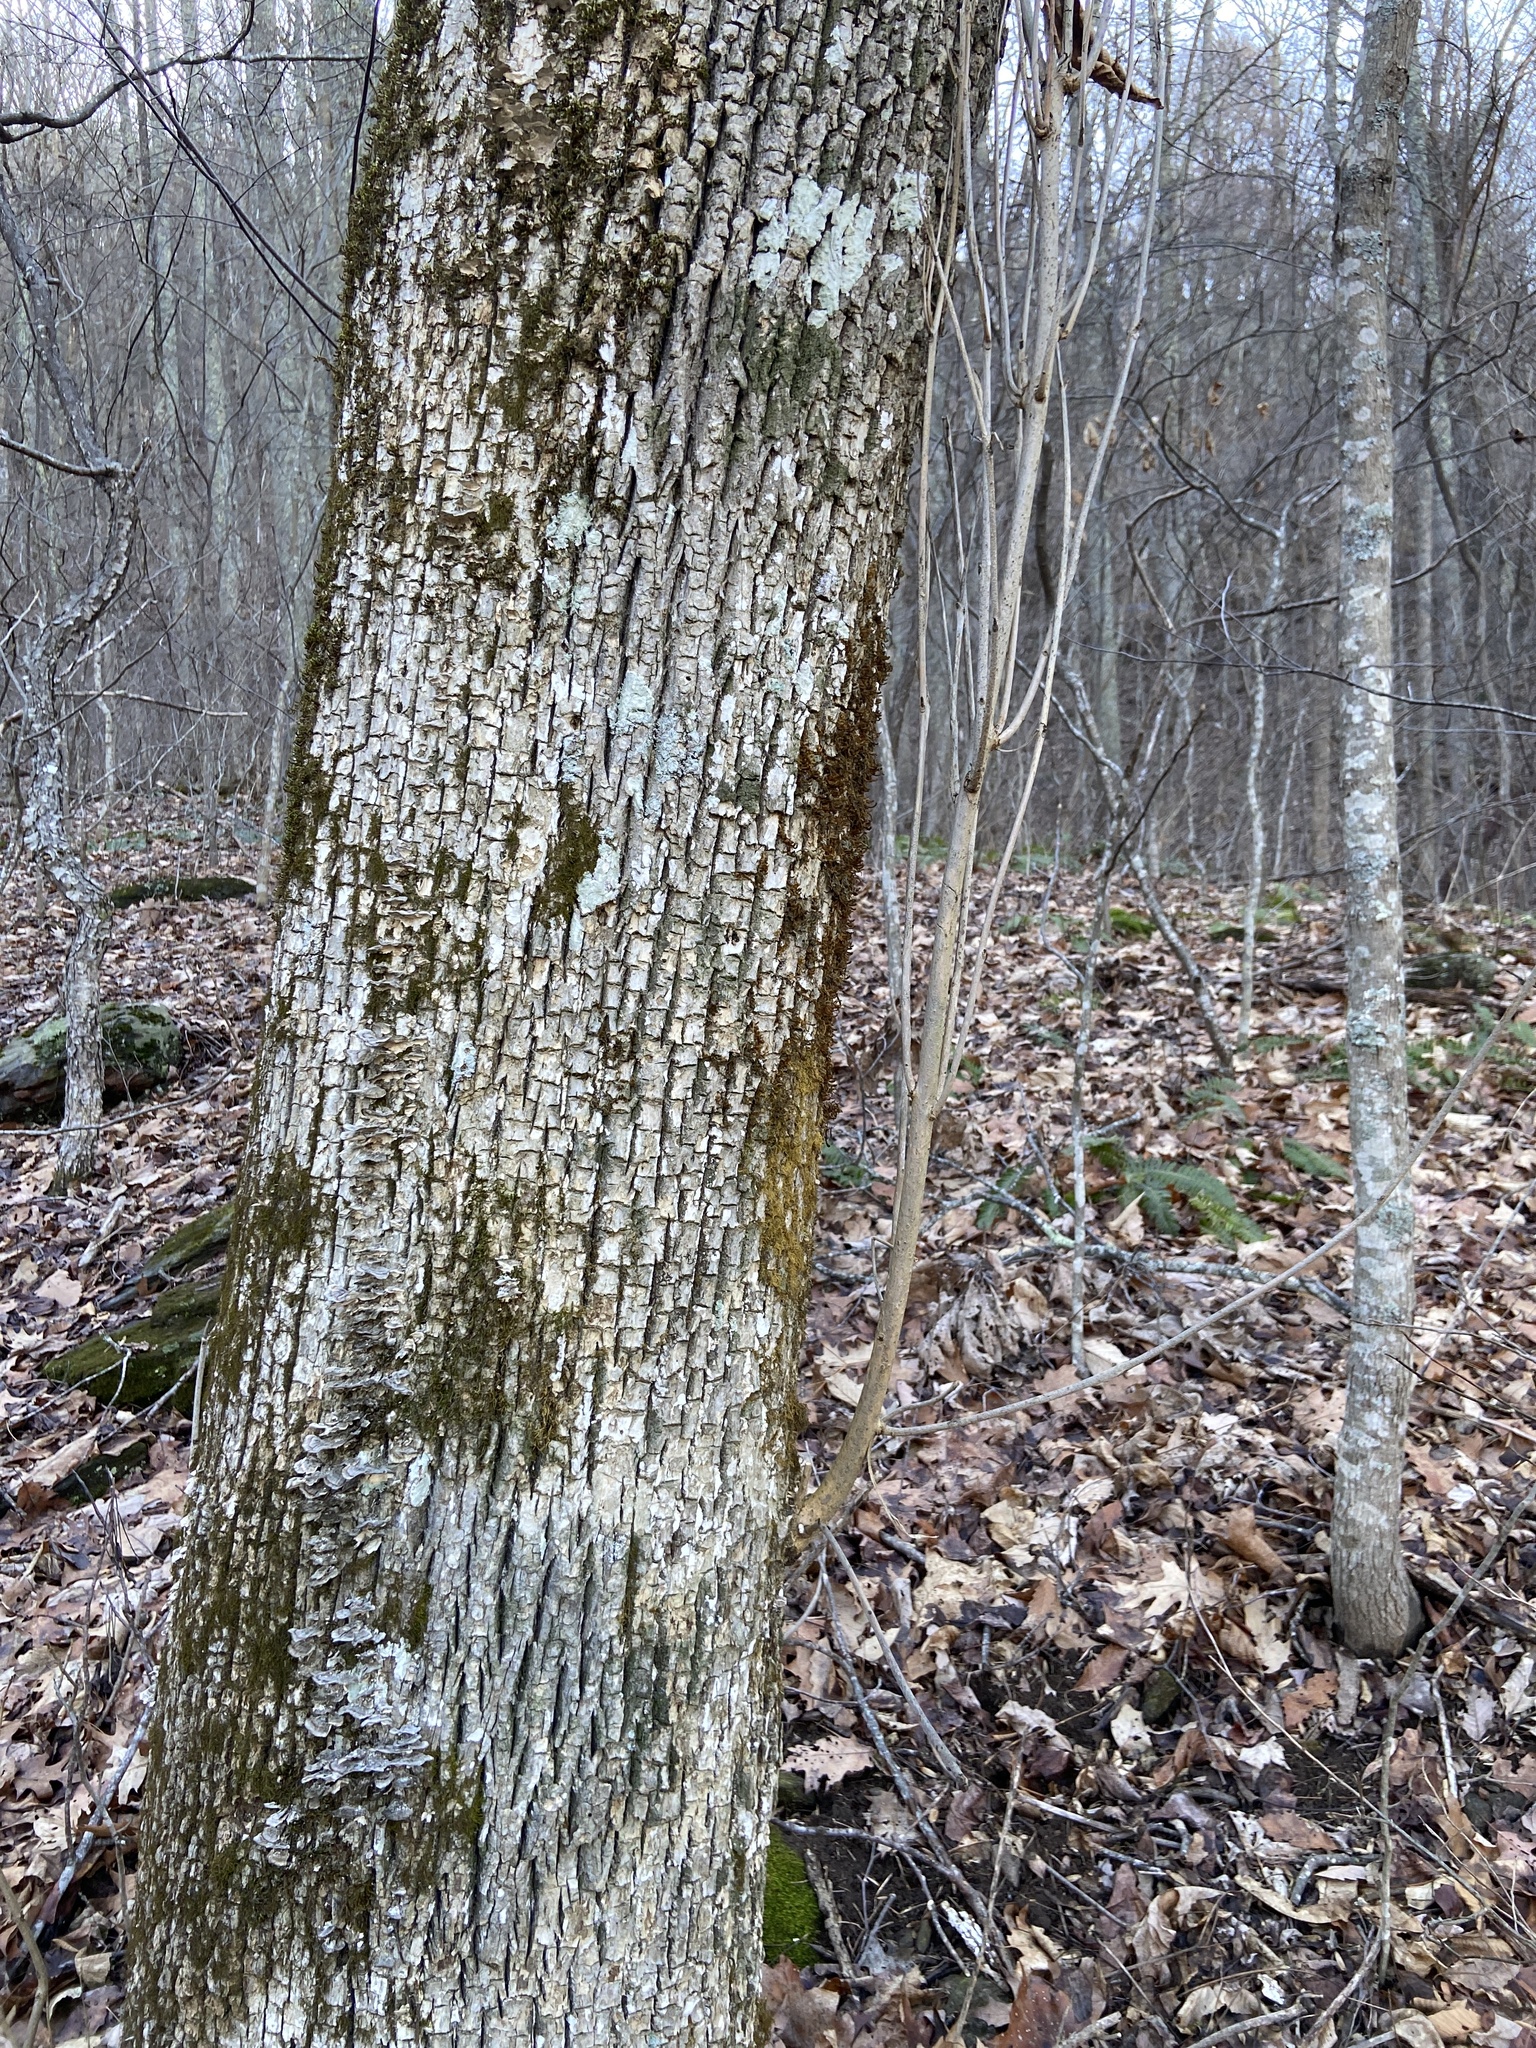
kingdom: Animalia
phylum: Arthropoda
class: Insecta
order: Coleoptera
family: Buprestidae
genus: Agrilus
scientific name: Agrilus planipennis
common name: Emerald ash borer
